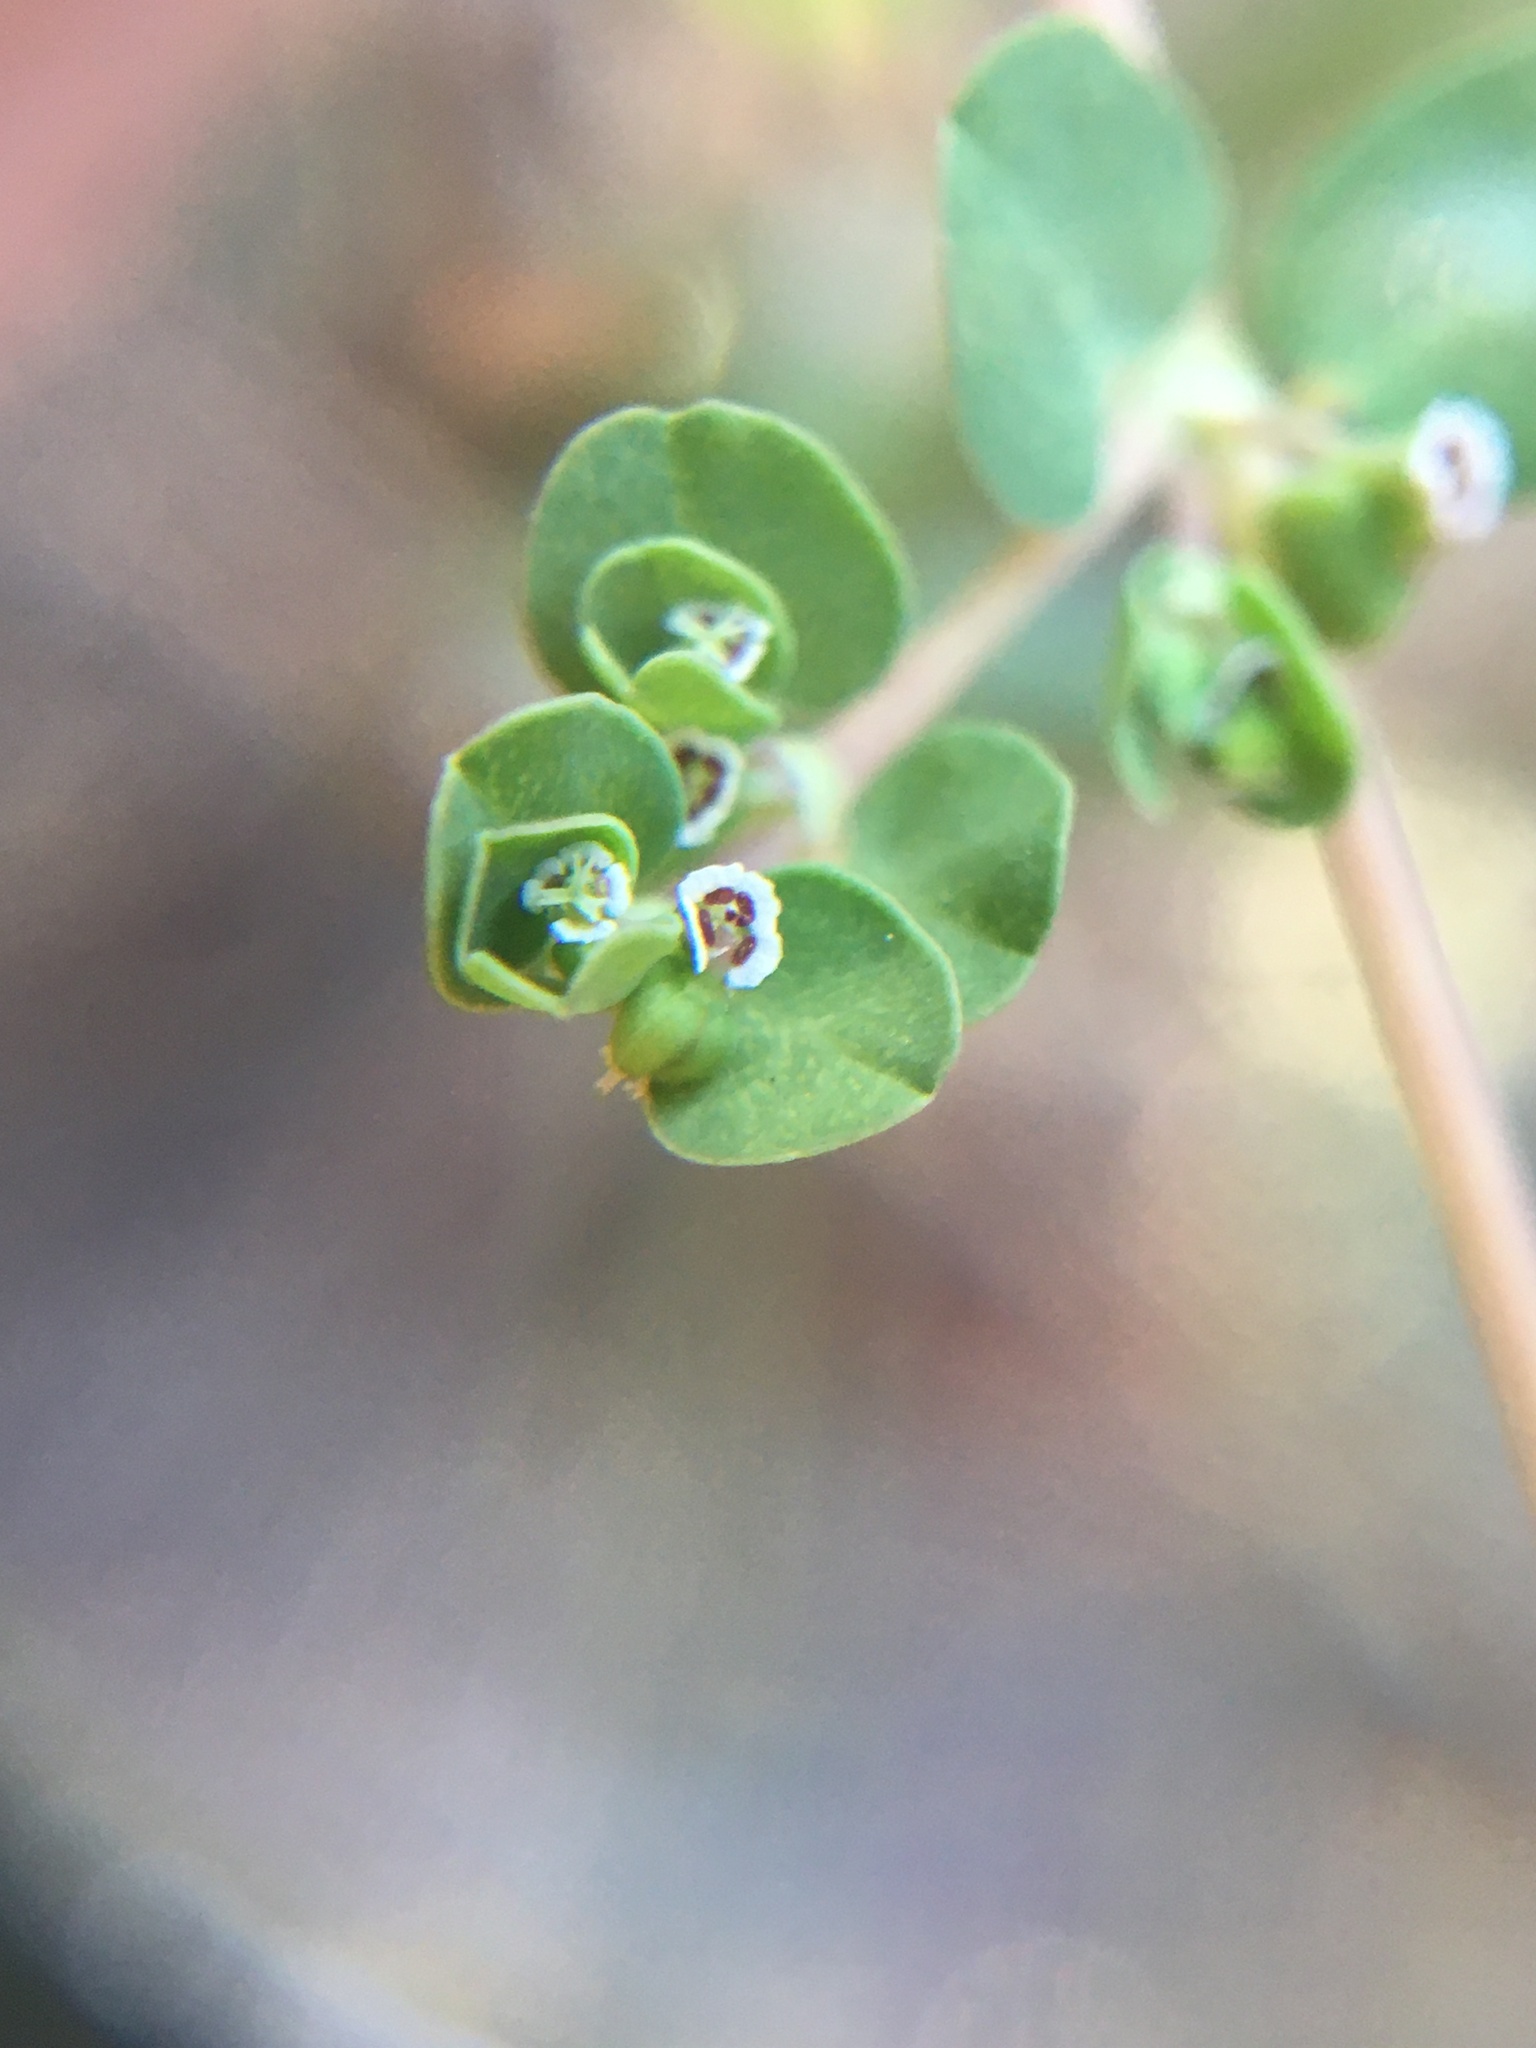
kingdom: Plantae
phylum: Tracheophyta
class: Magnoliopsida
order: Malpighiales
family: Euphorbiaceae
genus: Euphorbia
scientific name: Euphorbia serpens
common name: Matted sandmat
